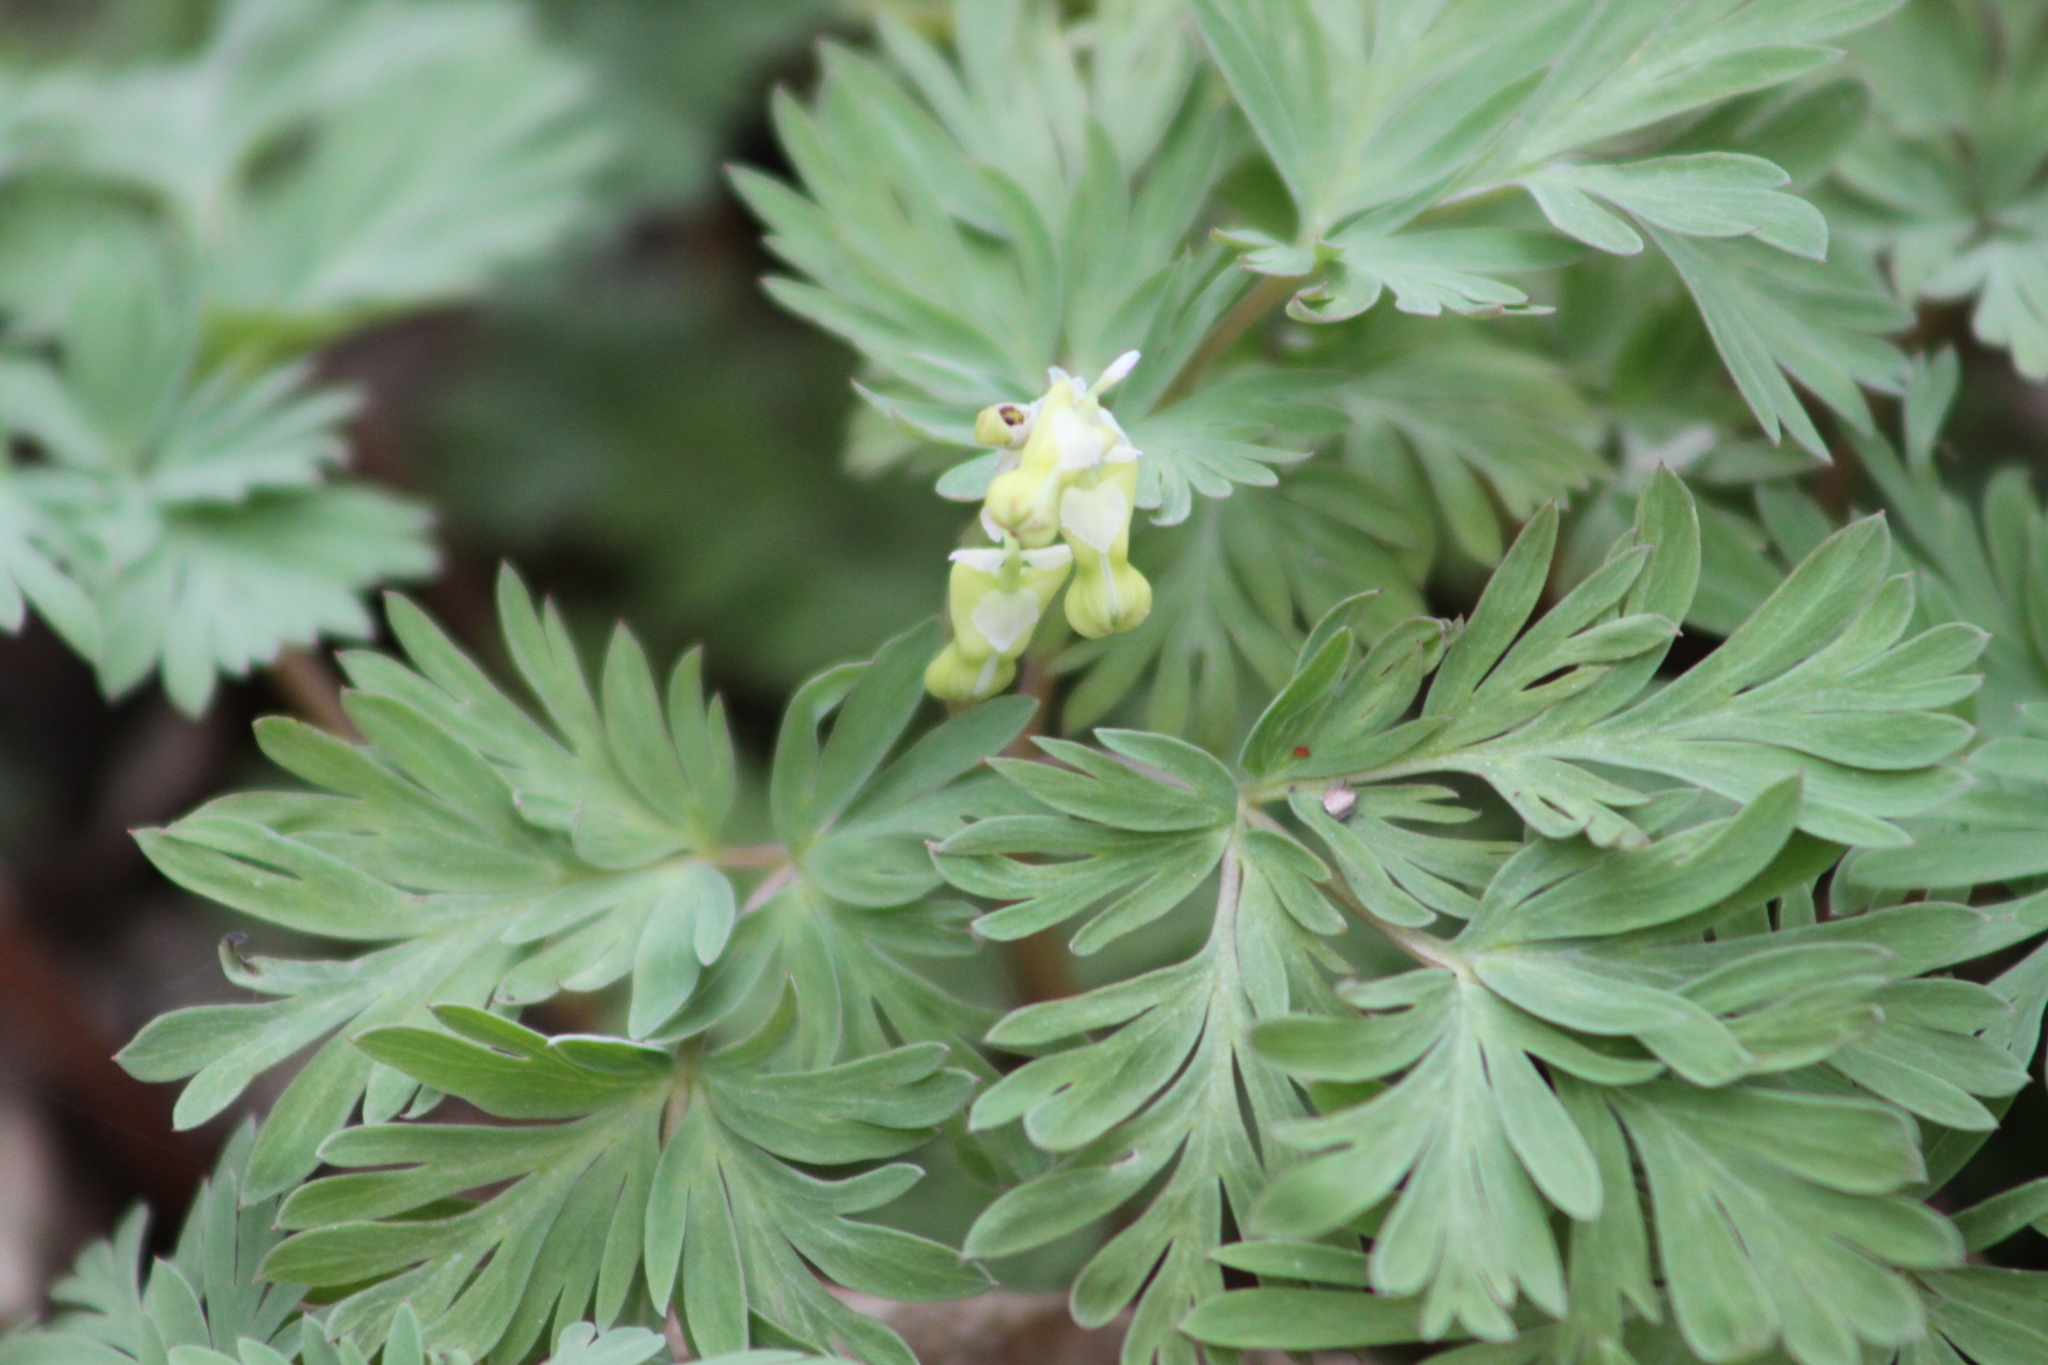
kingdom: Plantae
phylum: Tracheophyta
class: Magnoliopsida
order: Ranunculales
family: Papaveraceae
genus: Dicentra
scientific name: Dicentra cucullaria
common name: Dutchman's breeches
